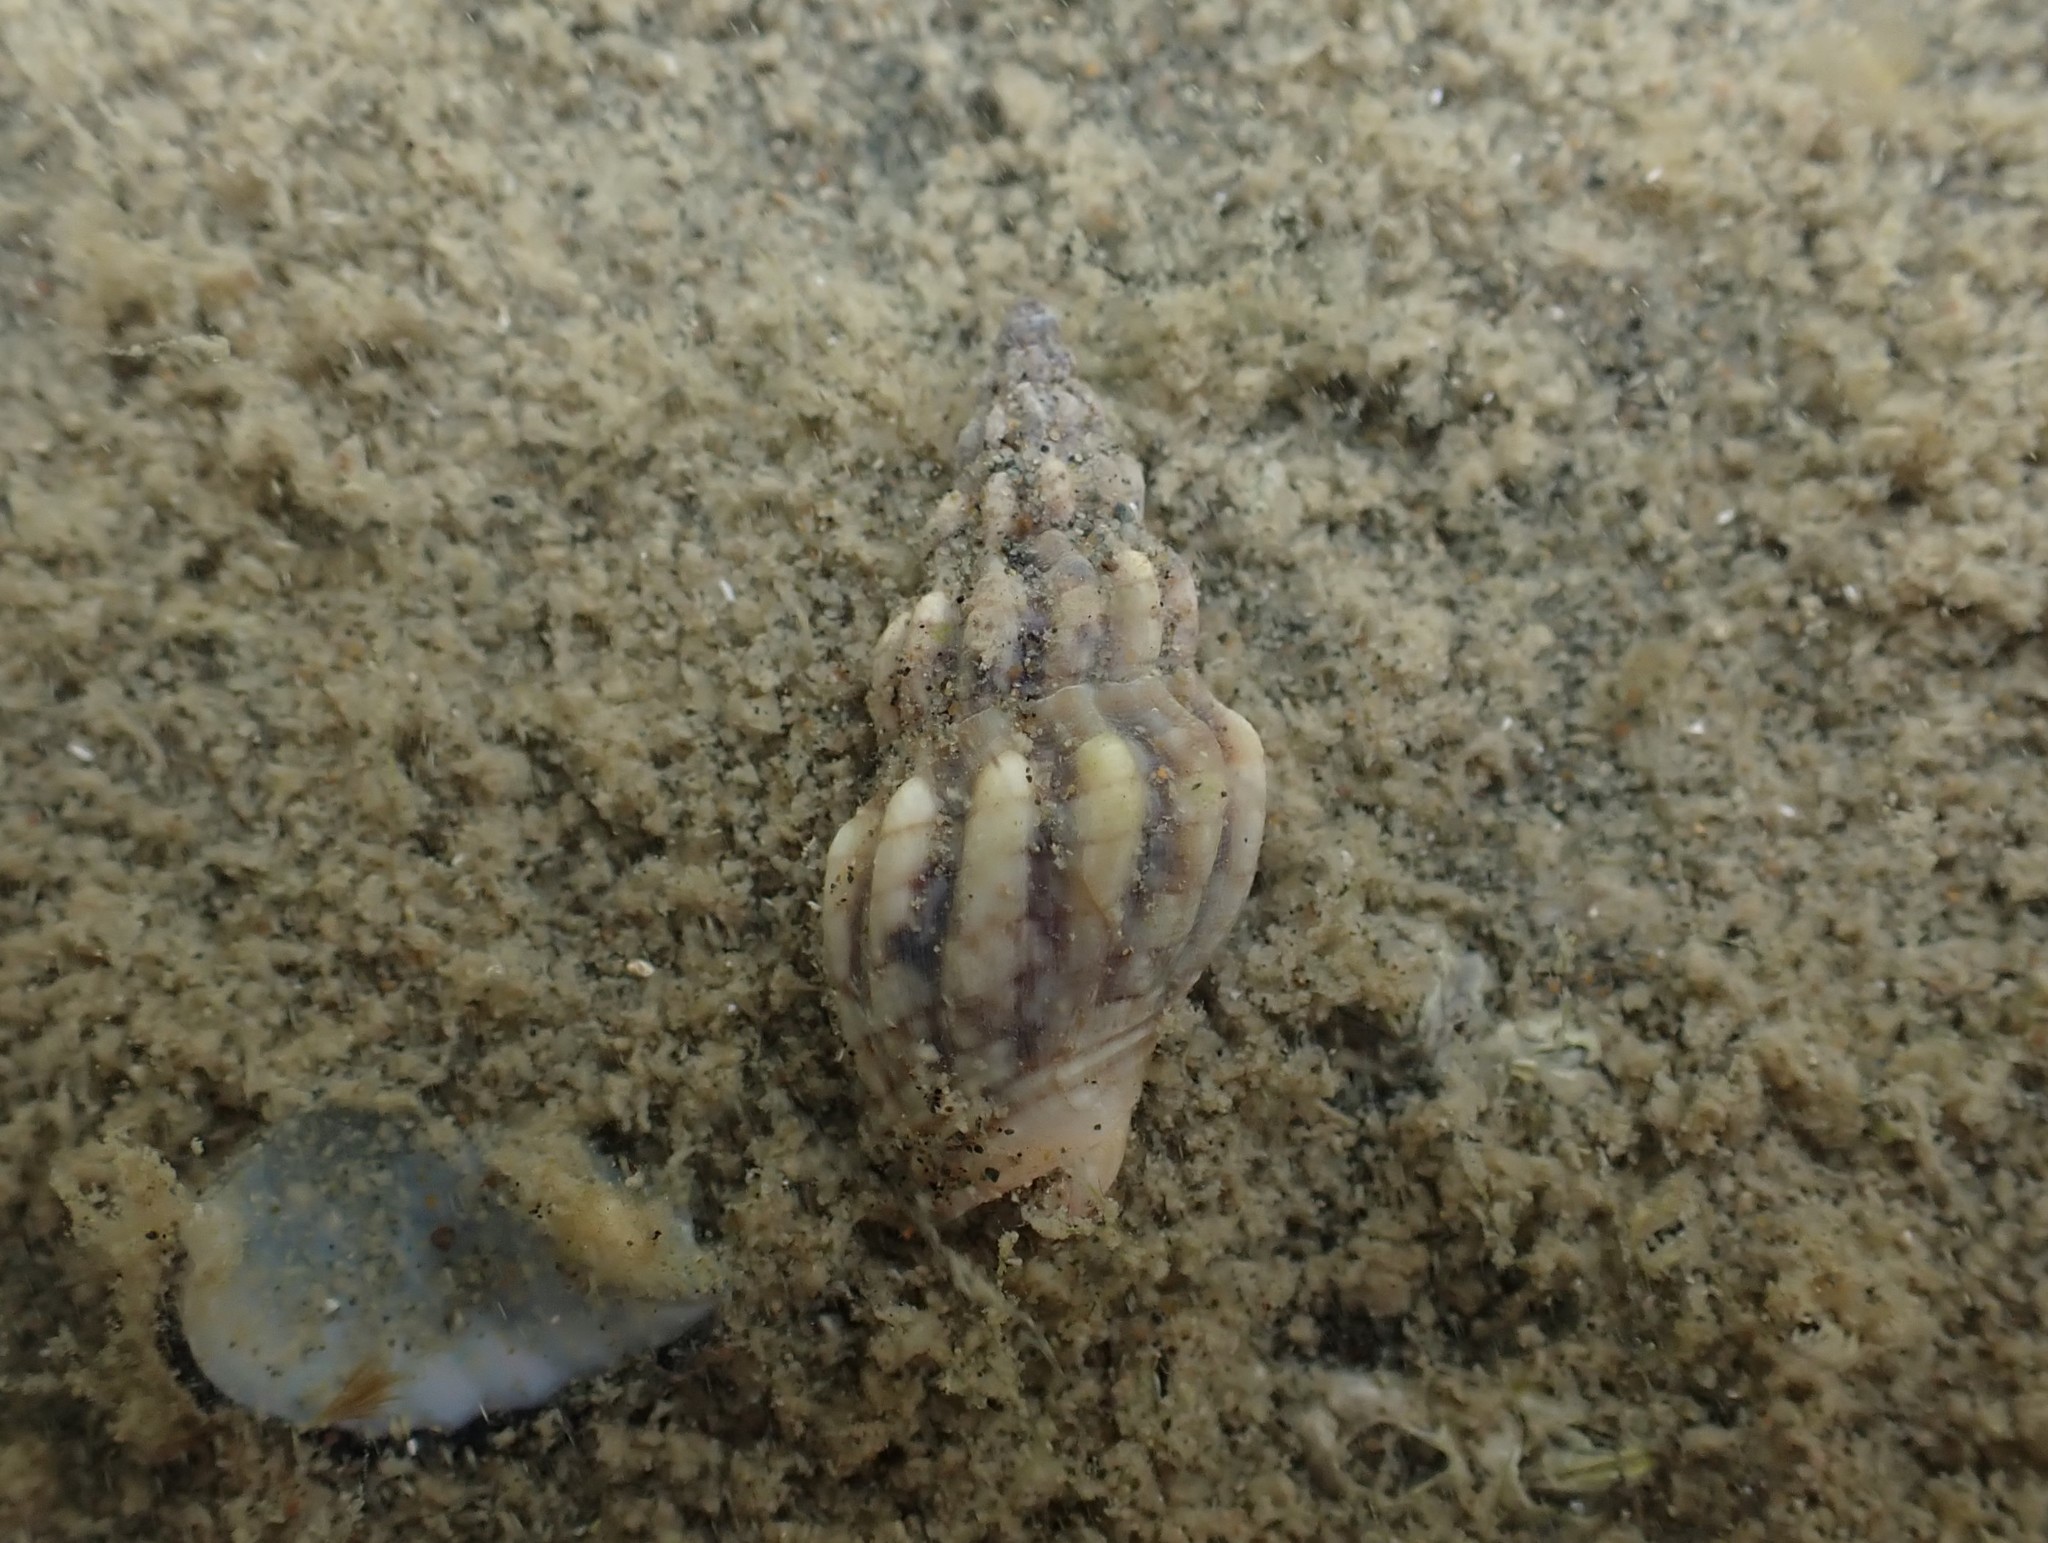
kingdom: Animalia
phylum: Mollusca
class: Gastropoda
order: Neogastropoda
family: Cominellidae
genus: Cominella
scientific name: Cominella quoyana
